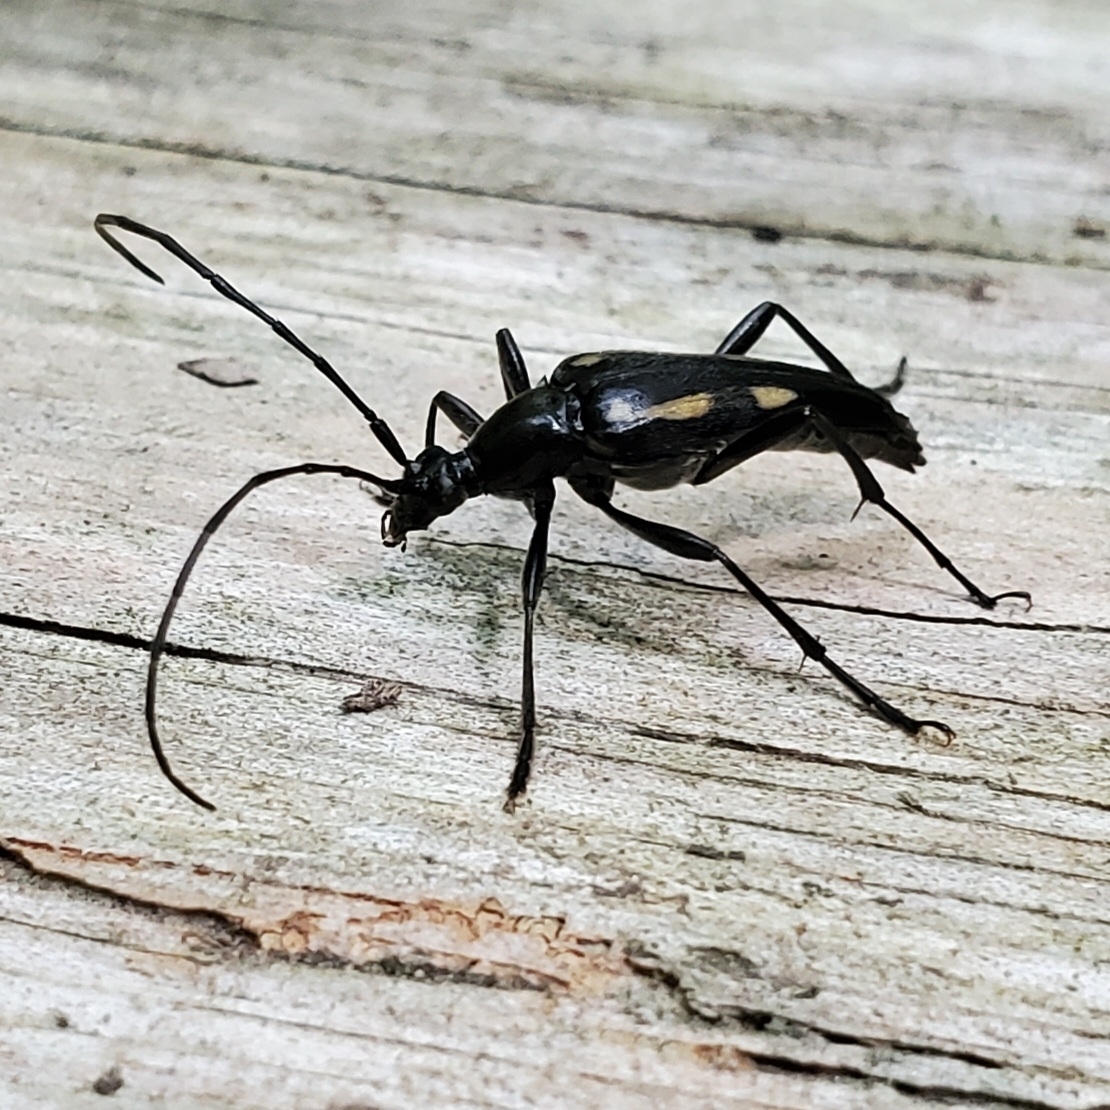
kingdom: Animalia
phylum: Arthropoda
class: Insecta
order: Coleoptera
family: Cerambycidae
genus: Etorofus
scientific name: Etorofus
